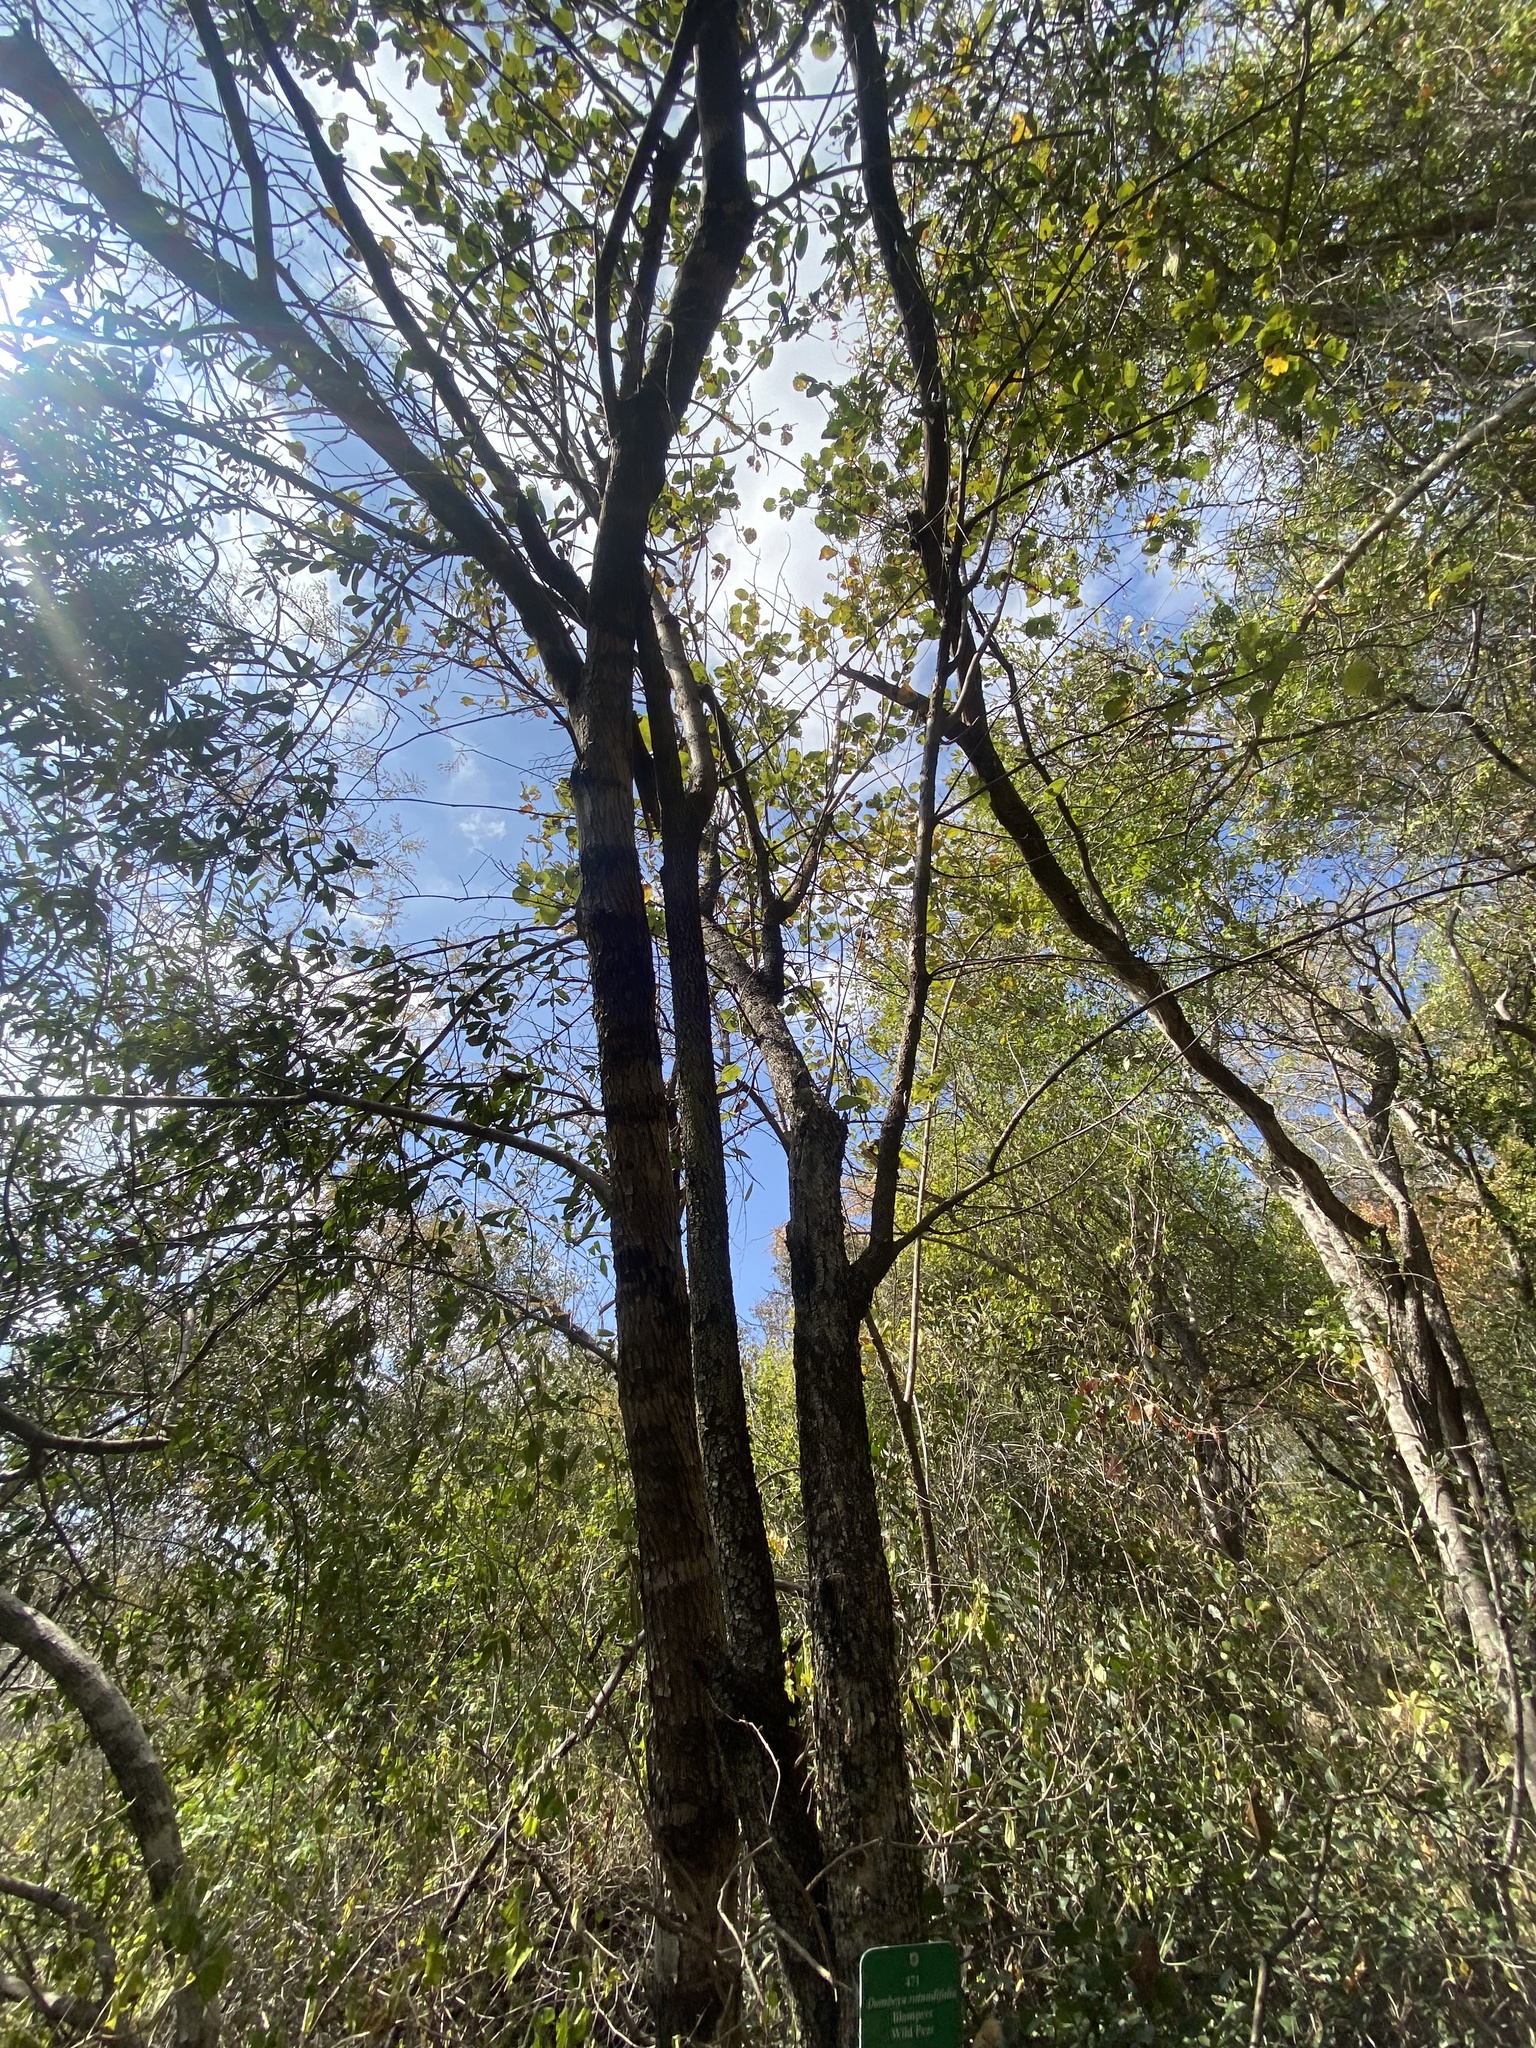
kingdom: Plantae
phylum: Tracheophyta
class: Magnoliopsida
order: Malvales
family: Malvaceae
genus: Dombeya
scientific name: Dombeya rotundifolia
